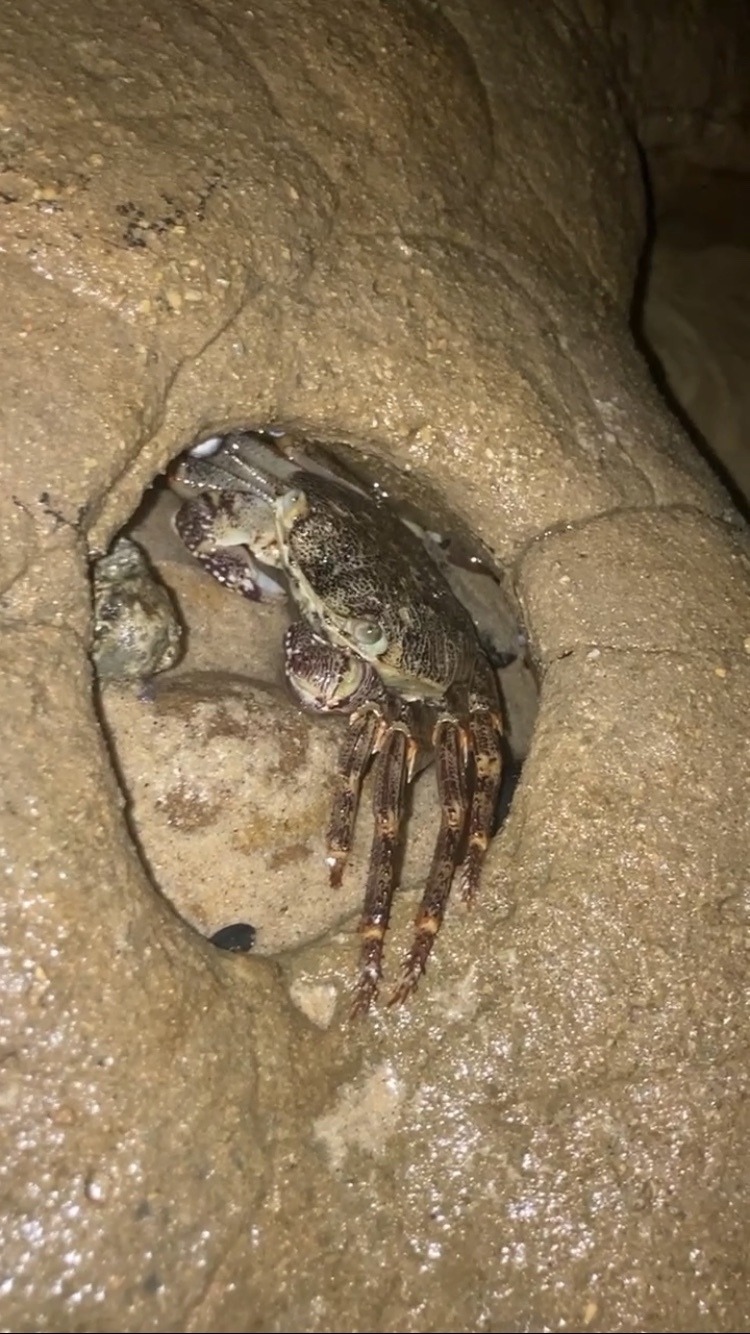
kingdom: Animalia
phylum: Arthropoda
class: Malacostraca
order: Decapoda
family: Grapsidae
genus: Leptograpsus
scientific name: Leptograpsus variegatus
